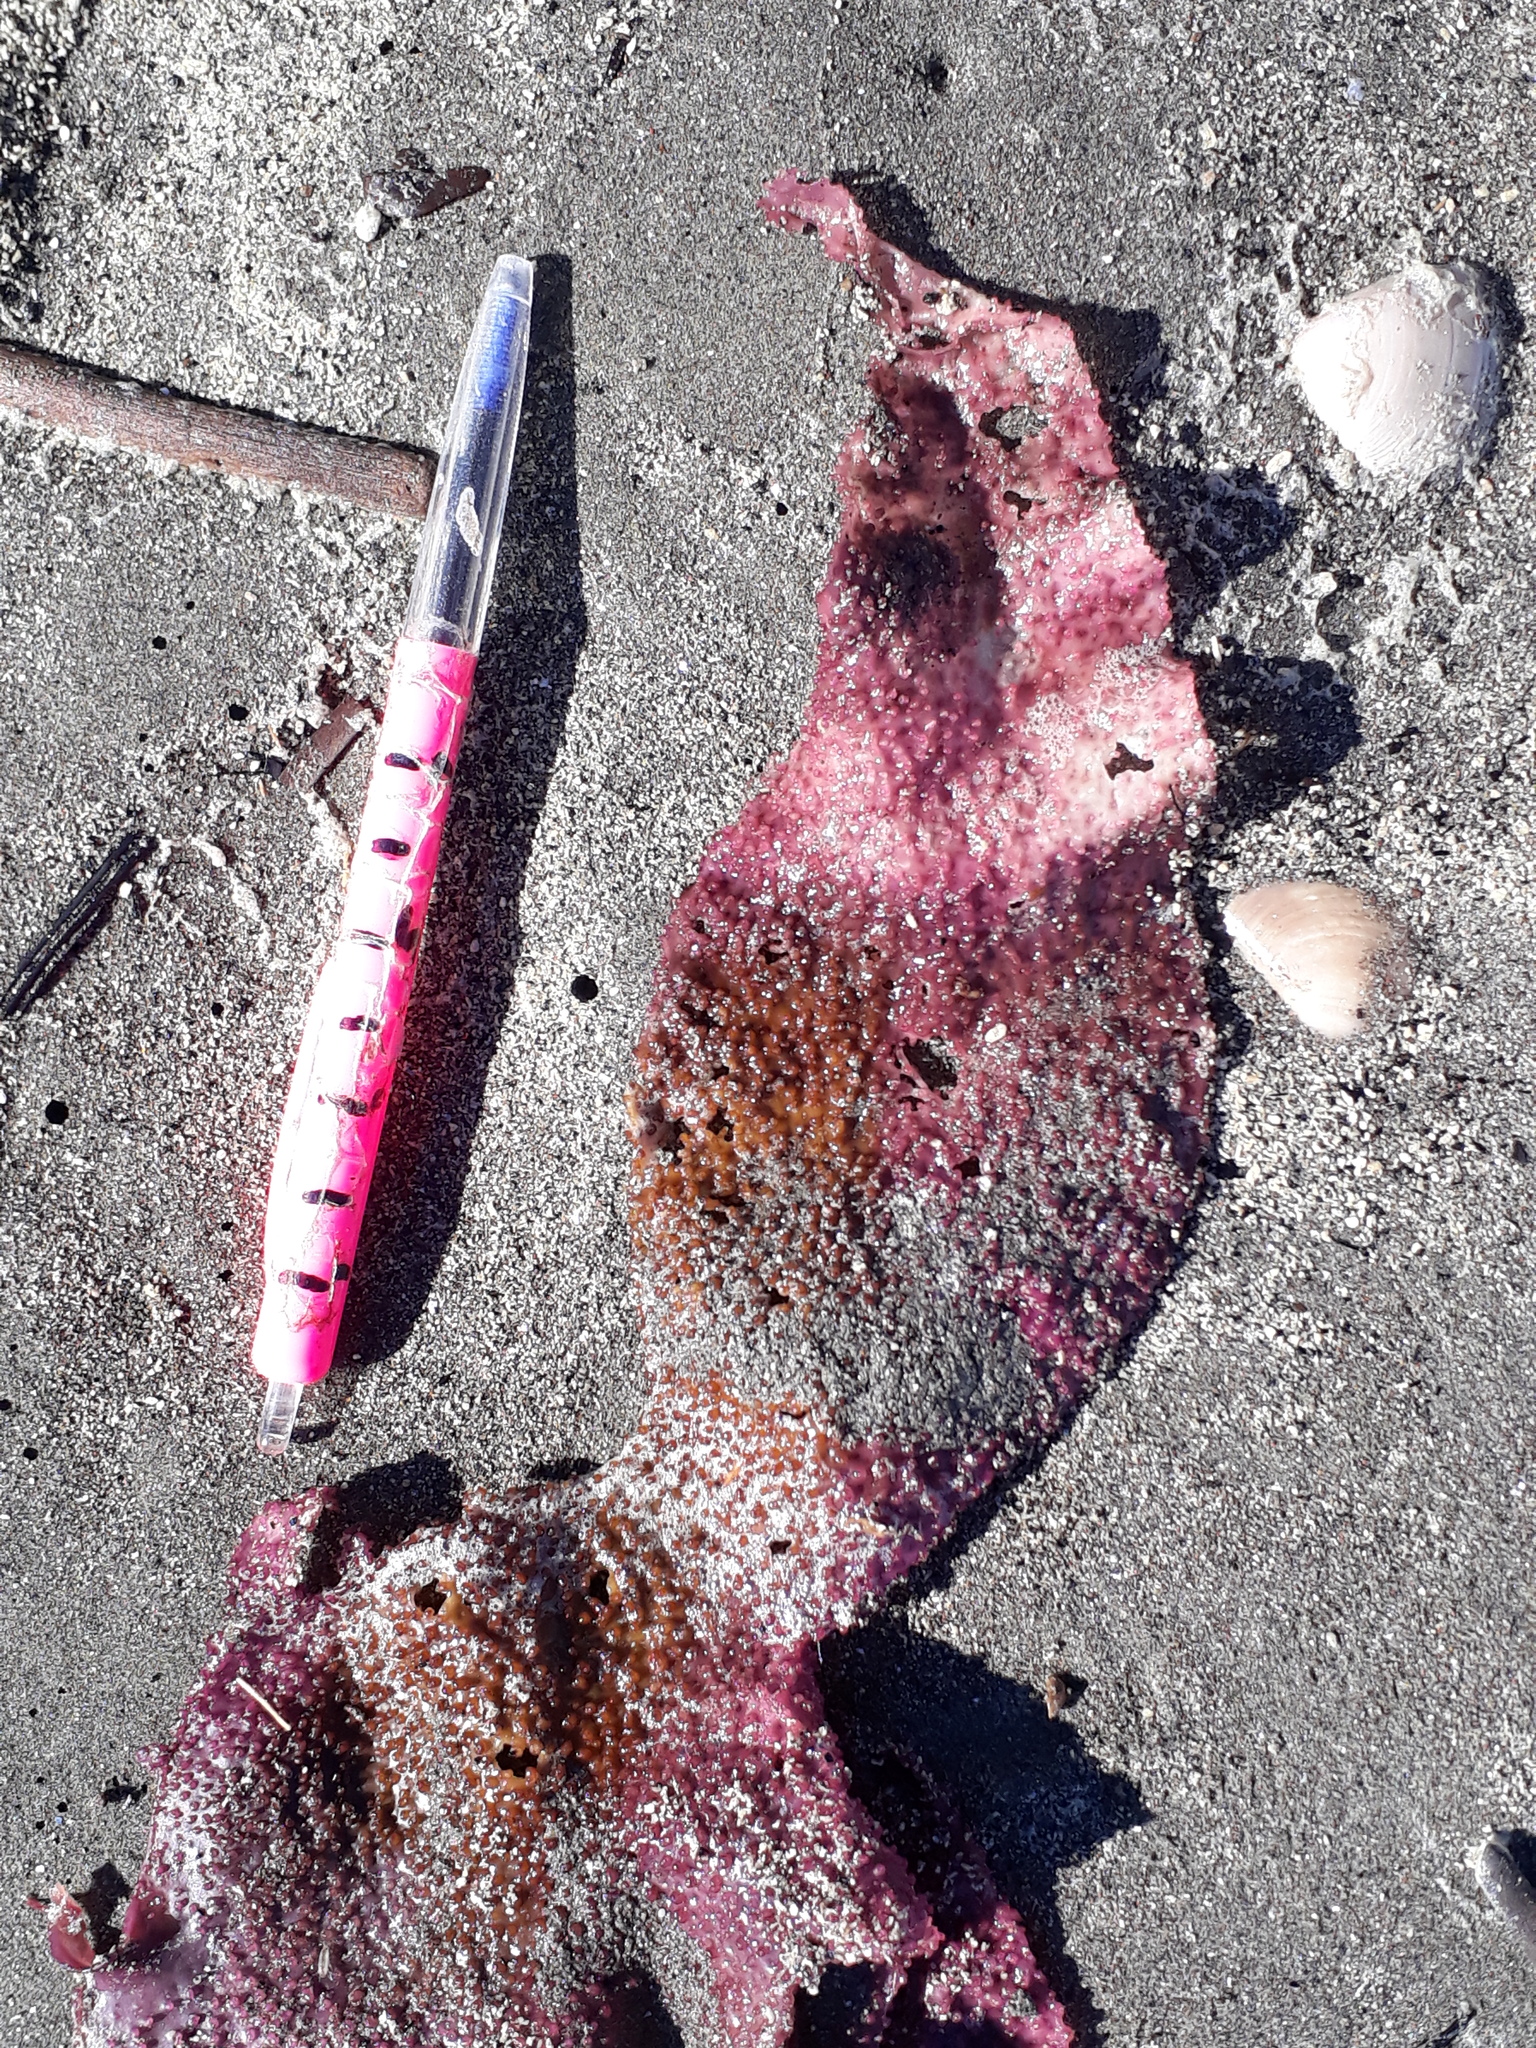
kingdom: Plantae
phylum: Rhodophyta
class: Florideophyceae
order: Gigartinales
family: Gigartinaceae
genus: Sarcothalia
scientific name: Sarcothalia
